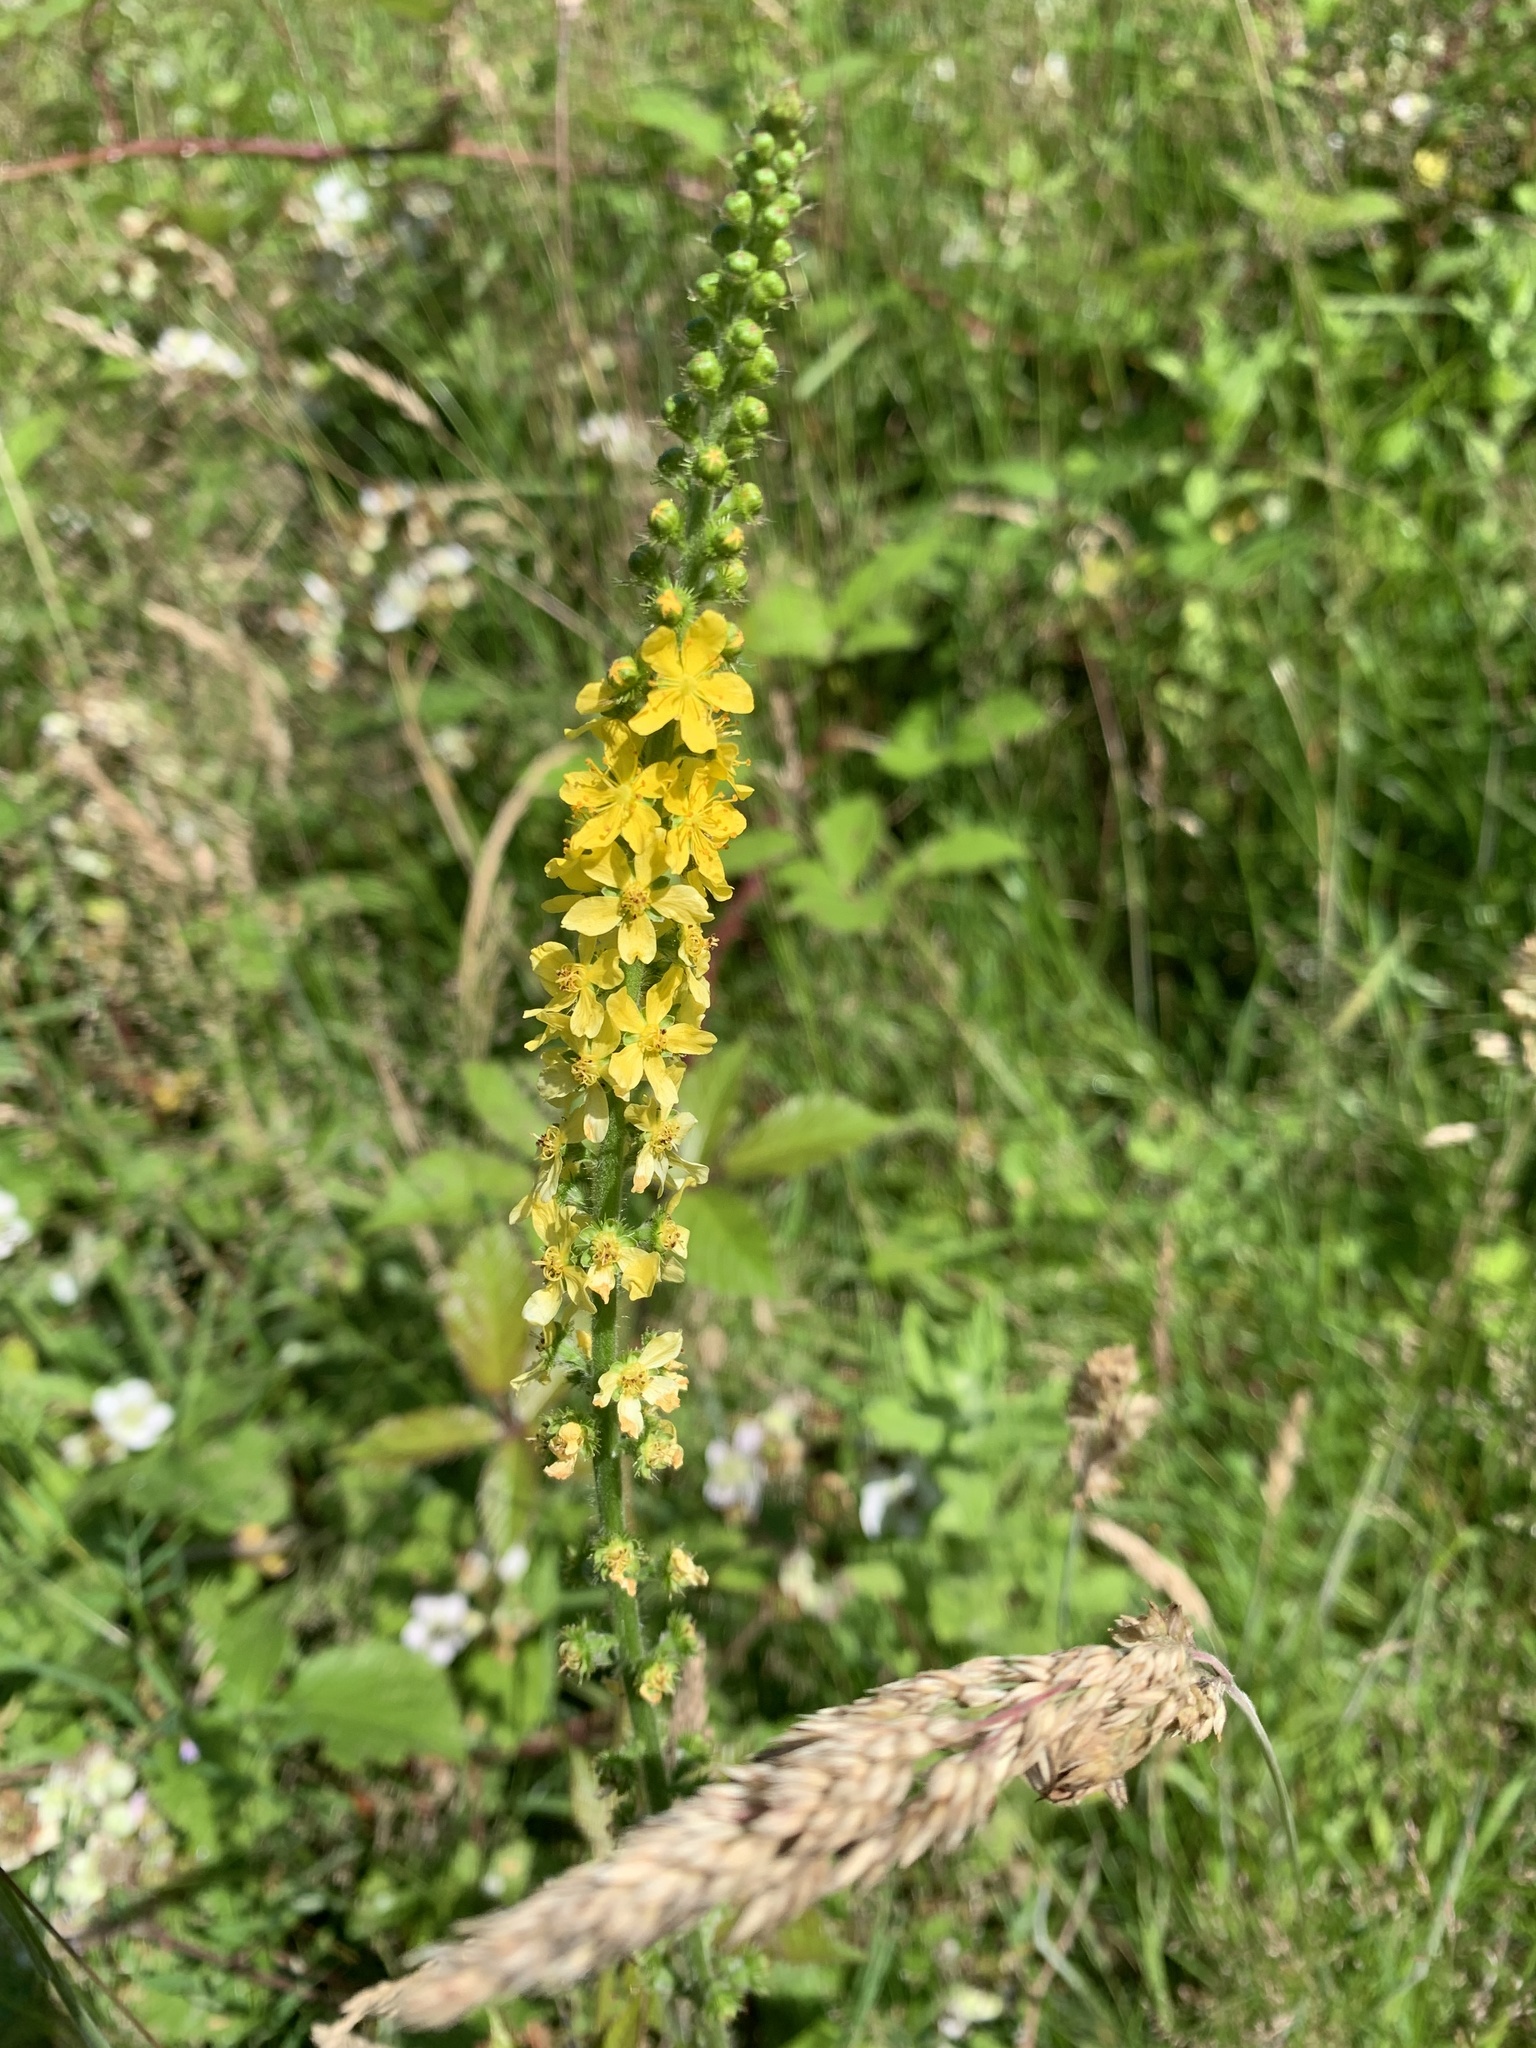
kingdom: Plantae
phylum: Tracheophyta
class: Magnoliopsida
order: Rosales
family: Rosaceae
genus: Agrimonia
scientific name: Agrimonia eupatoria
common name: Agrimony
